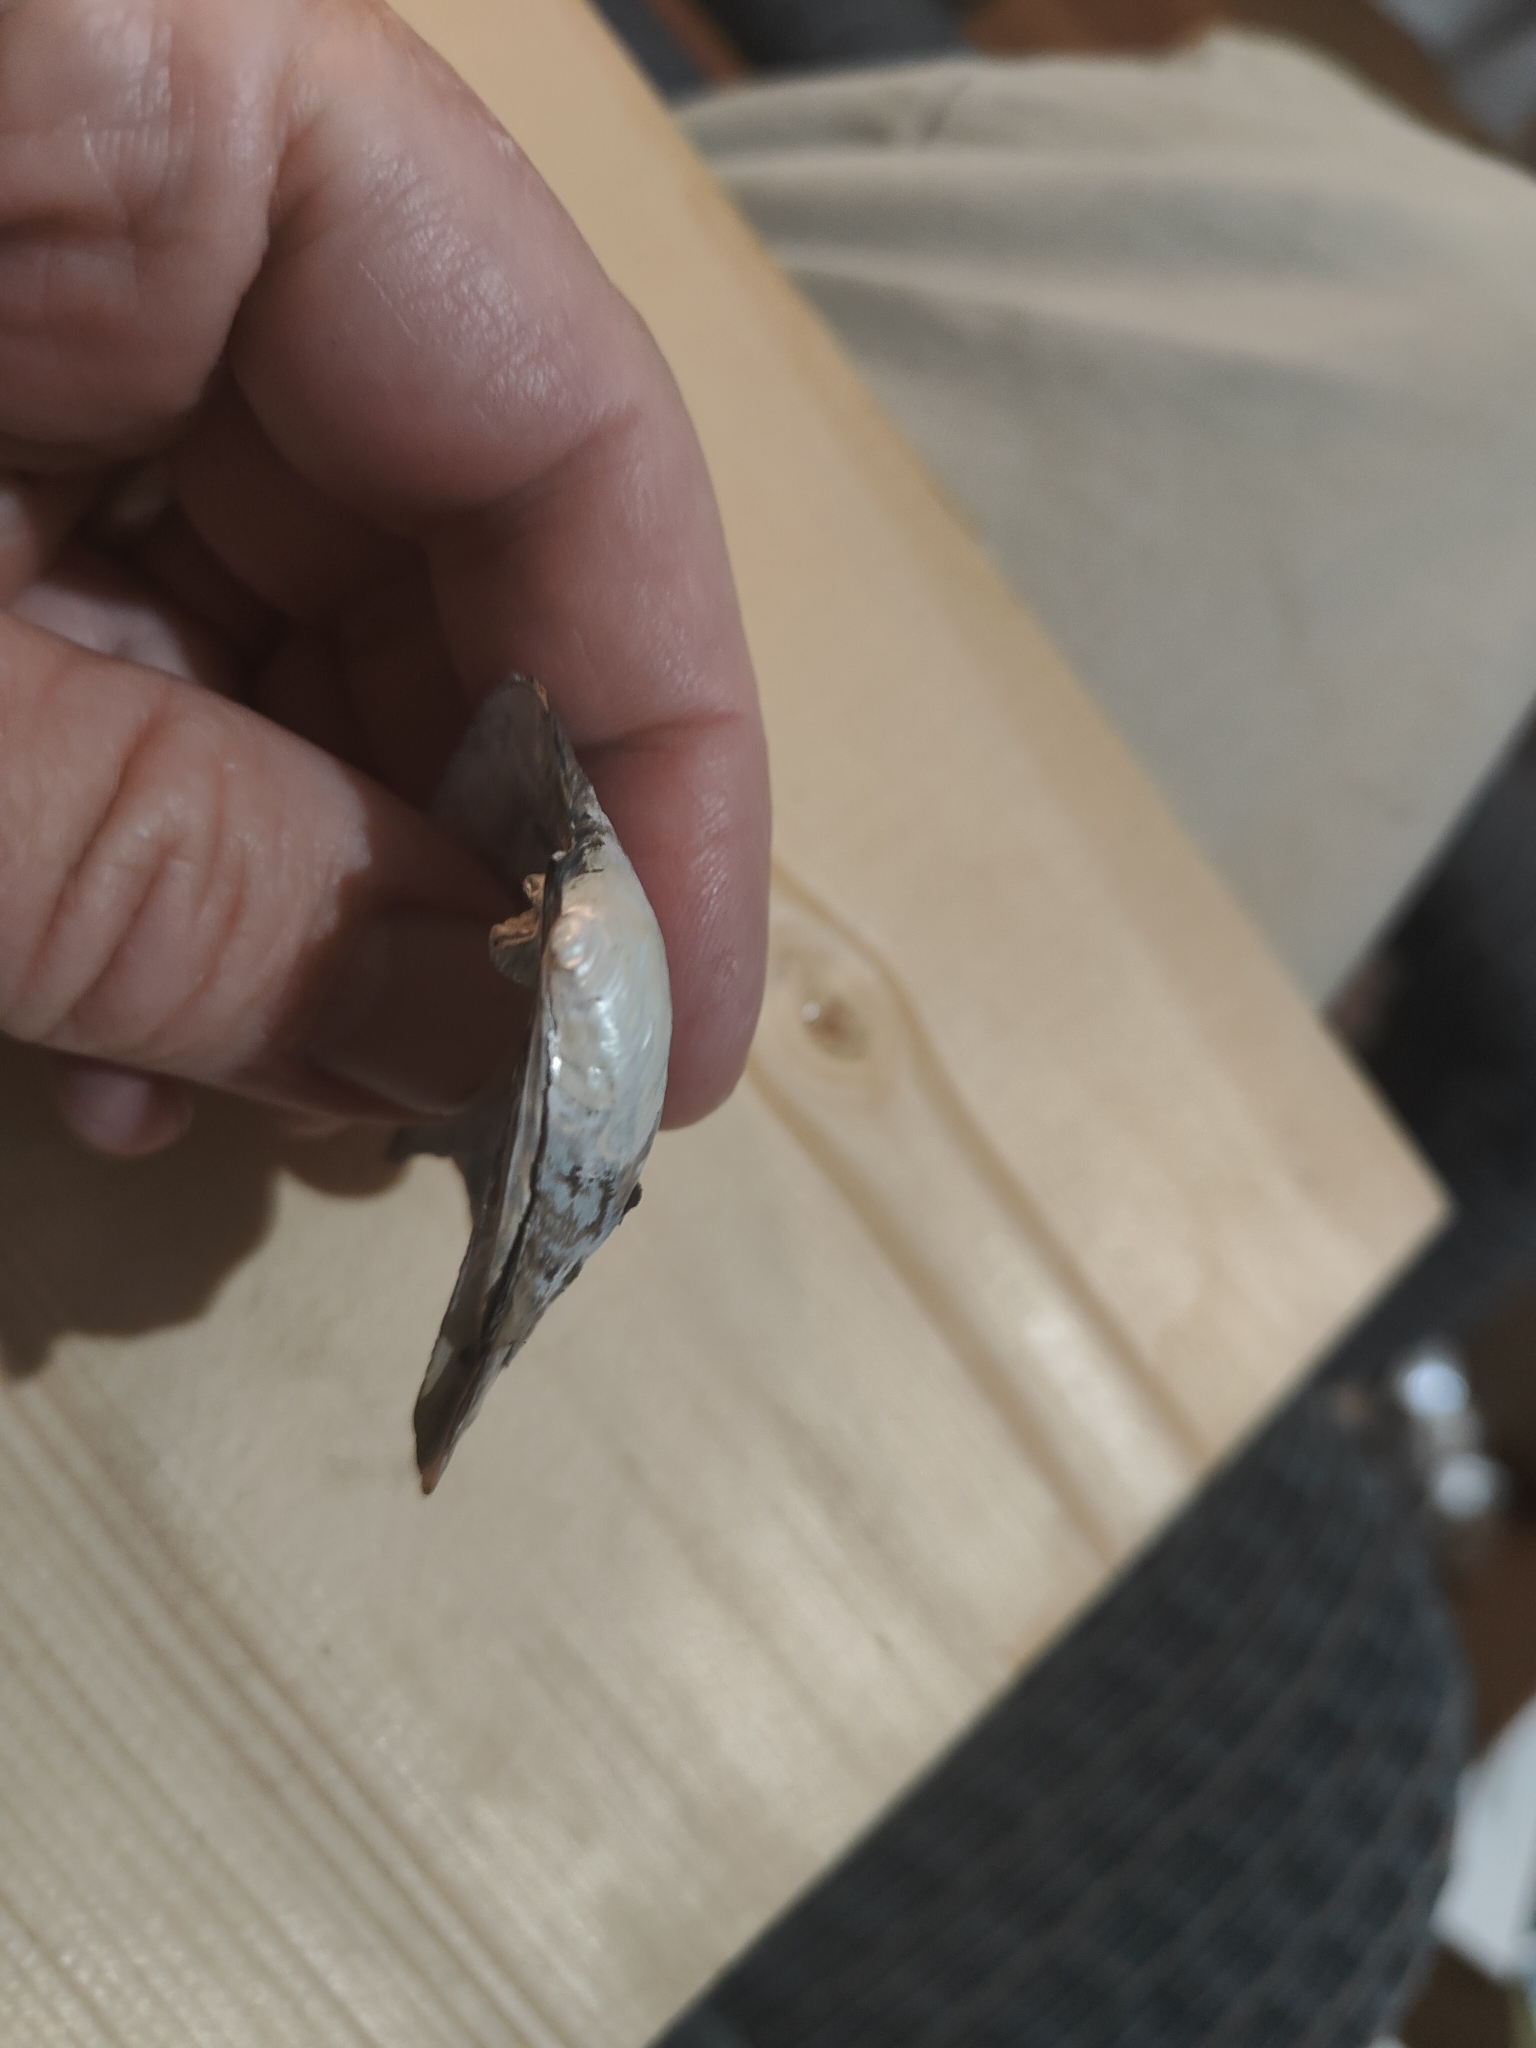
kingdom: Animalia
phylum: Mollusca
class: Bivalvia
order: Unionida
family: Unionidae
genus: Amblema
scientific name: Amblema plicata
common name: Threeridge
